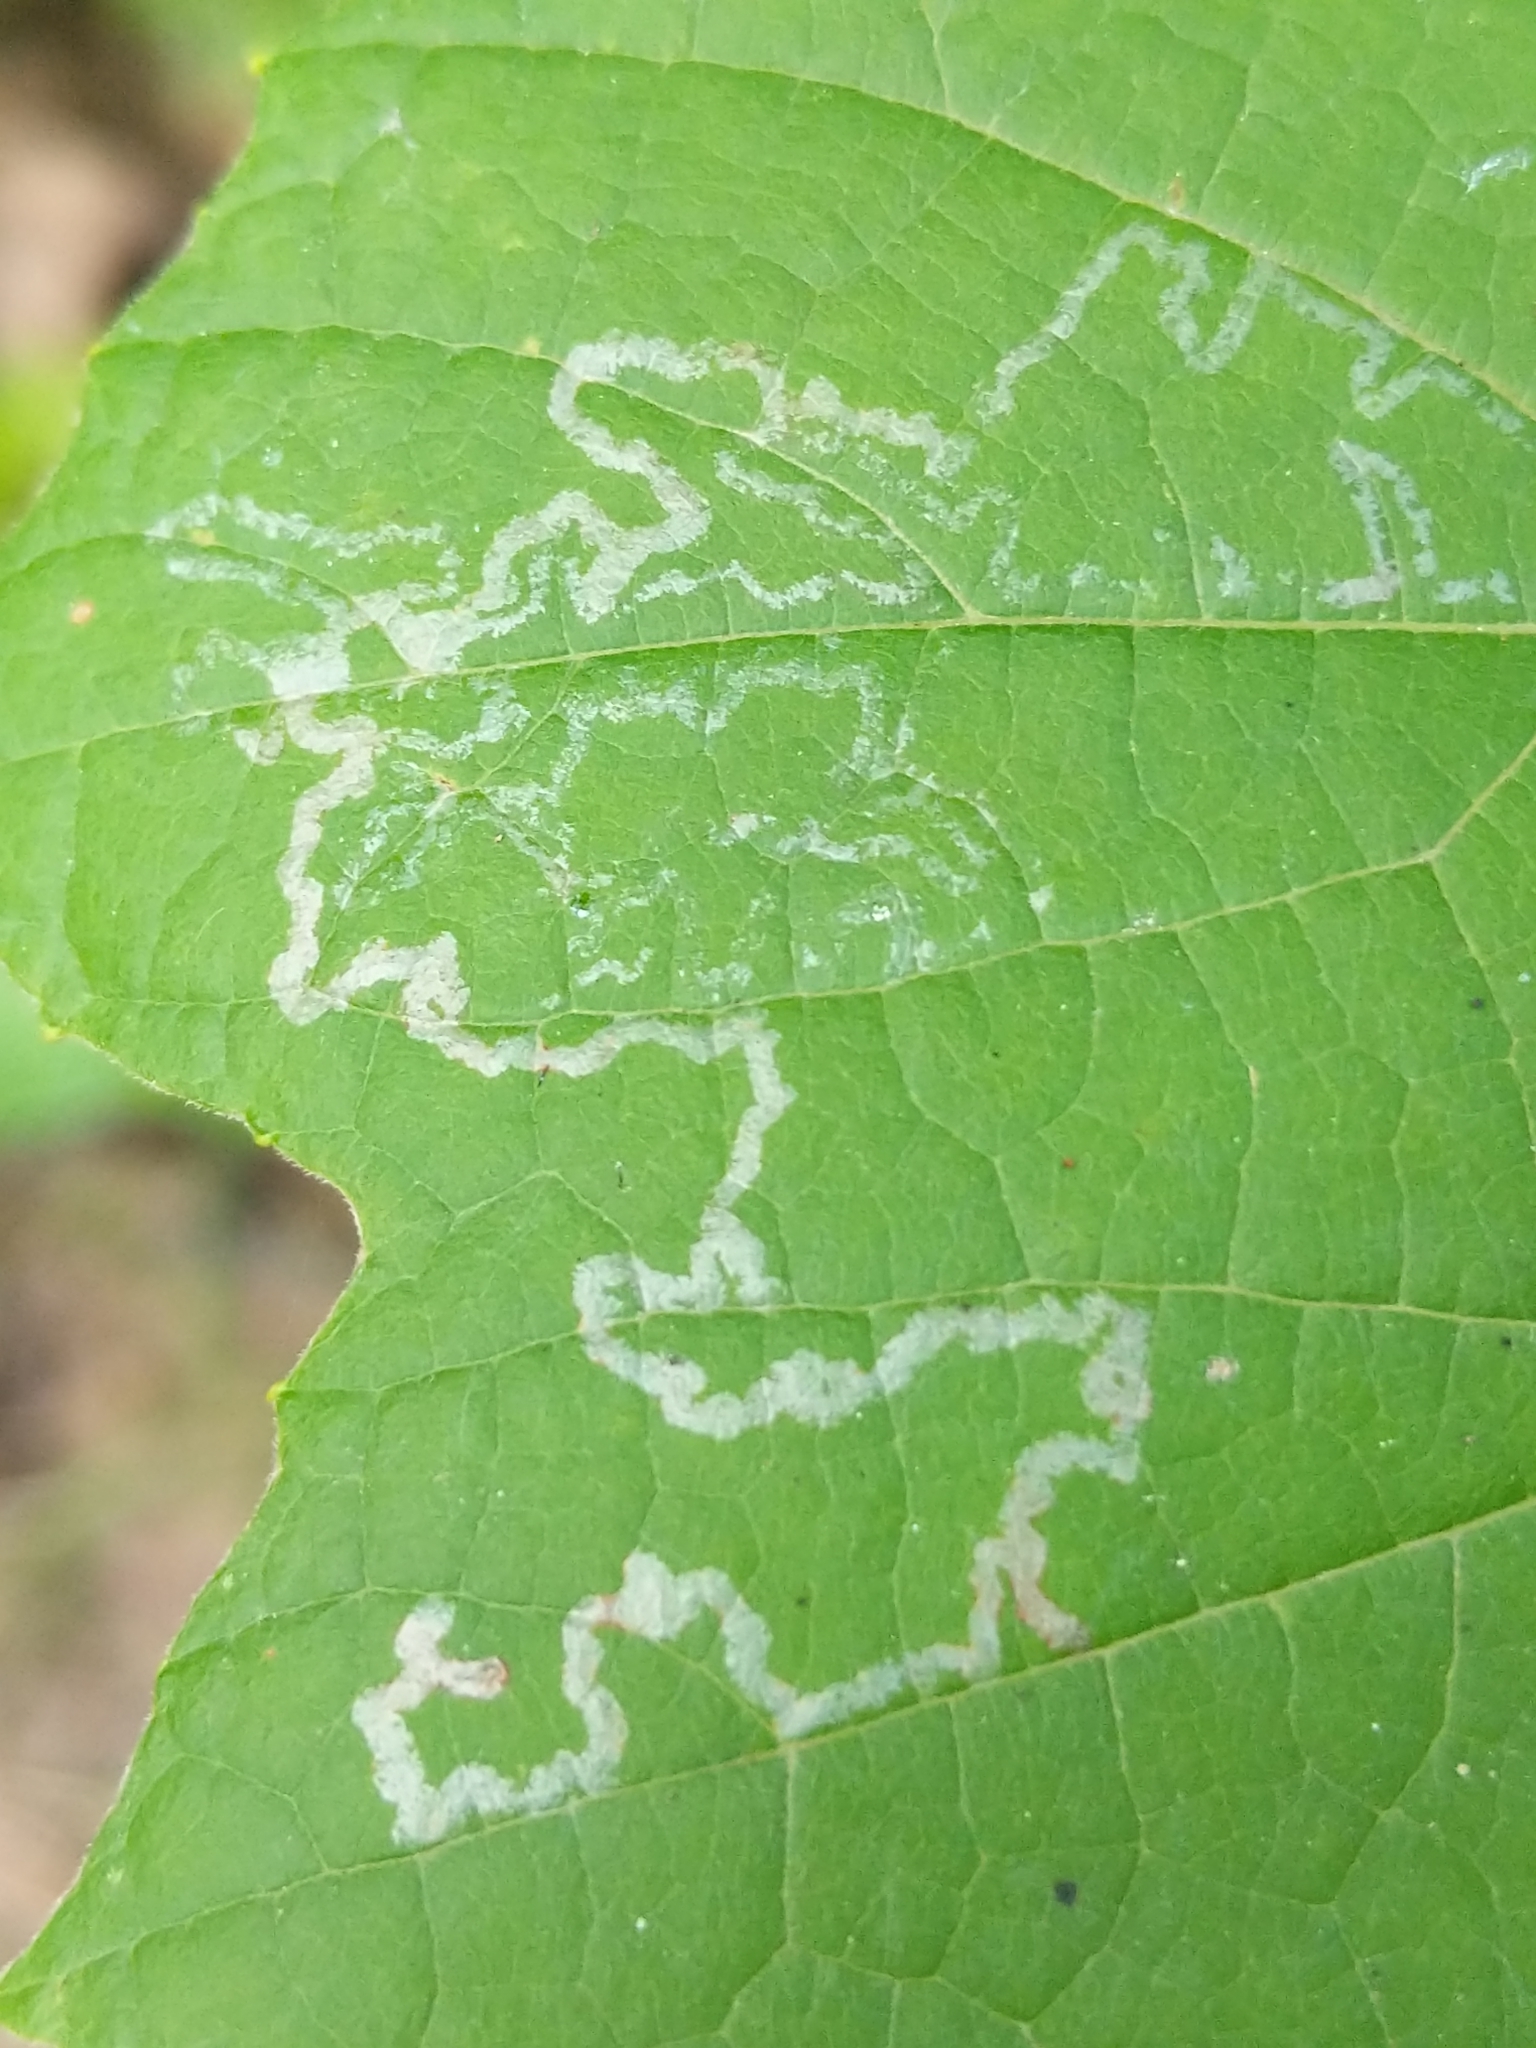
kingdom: Animalia
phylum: Arthropoda
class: Insecta
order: Lepidoptera
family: Gracillariidae
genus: Phyllocnistis
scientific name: Phyllocnistis vitegenella
